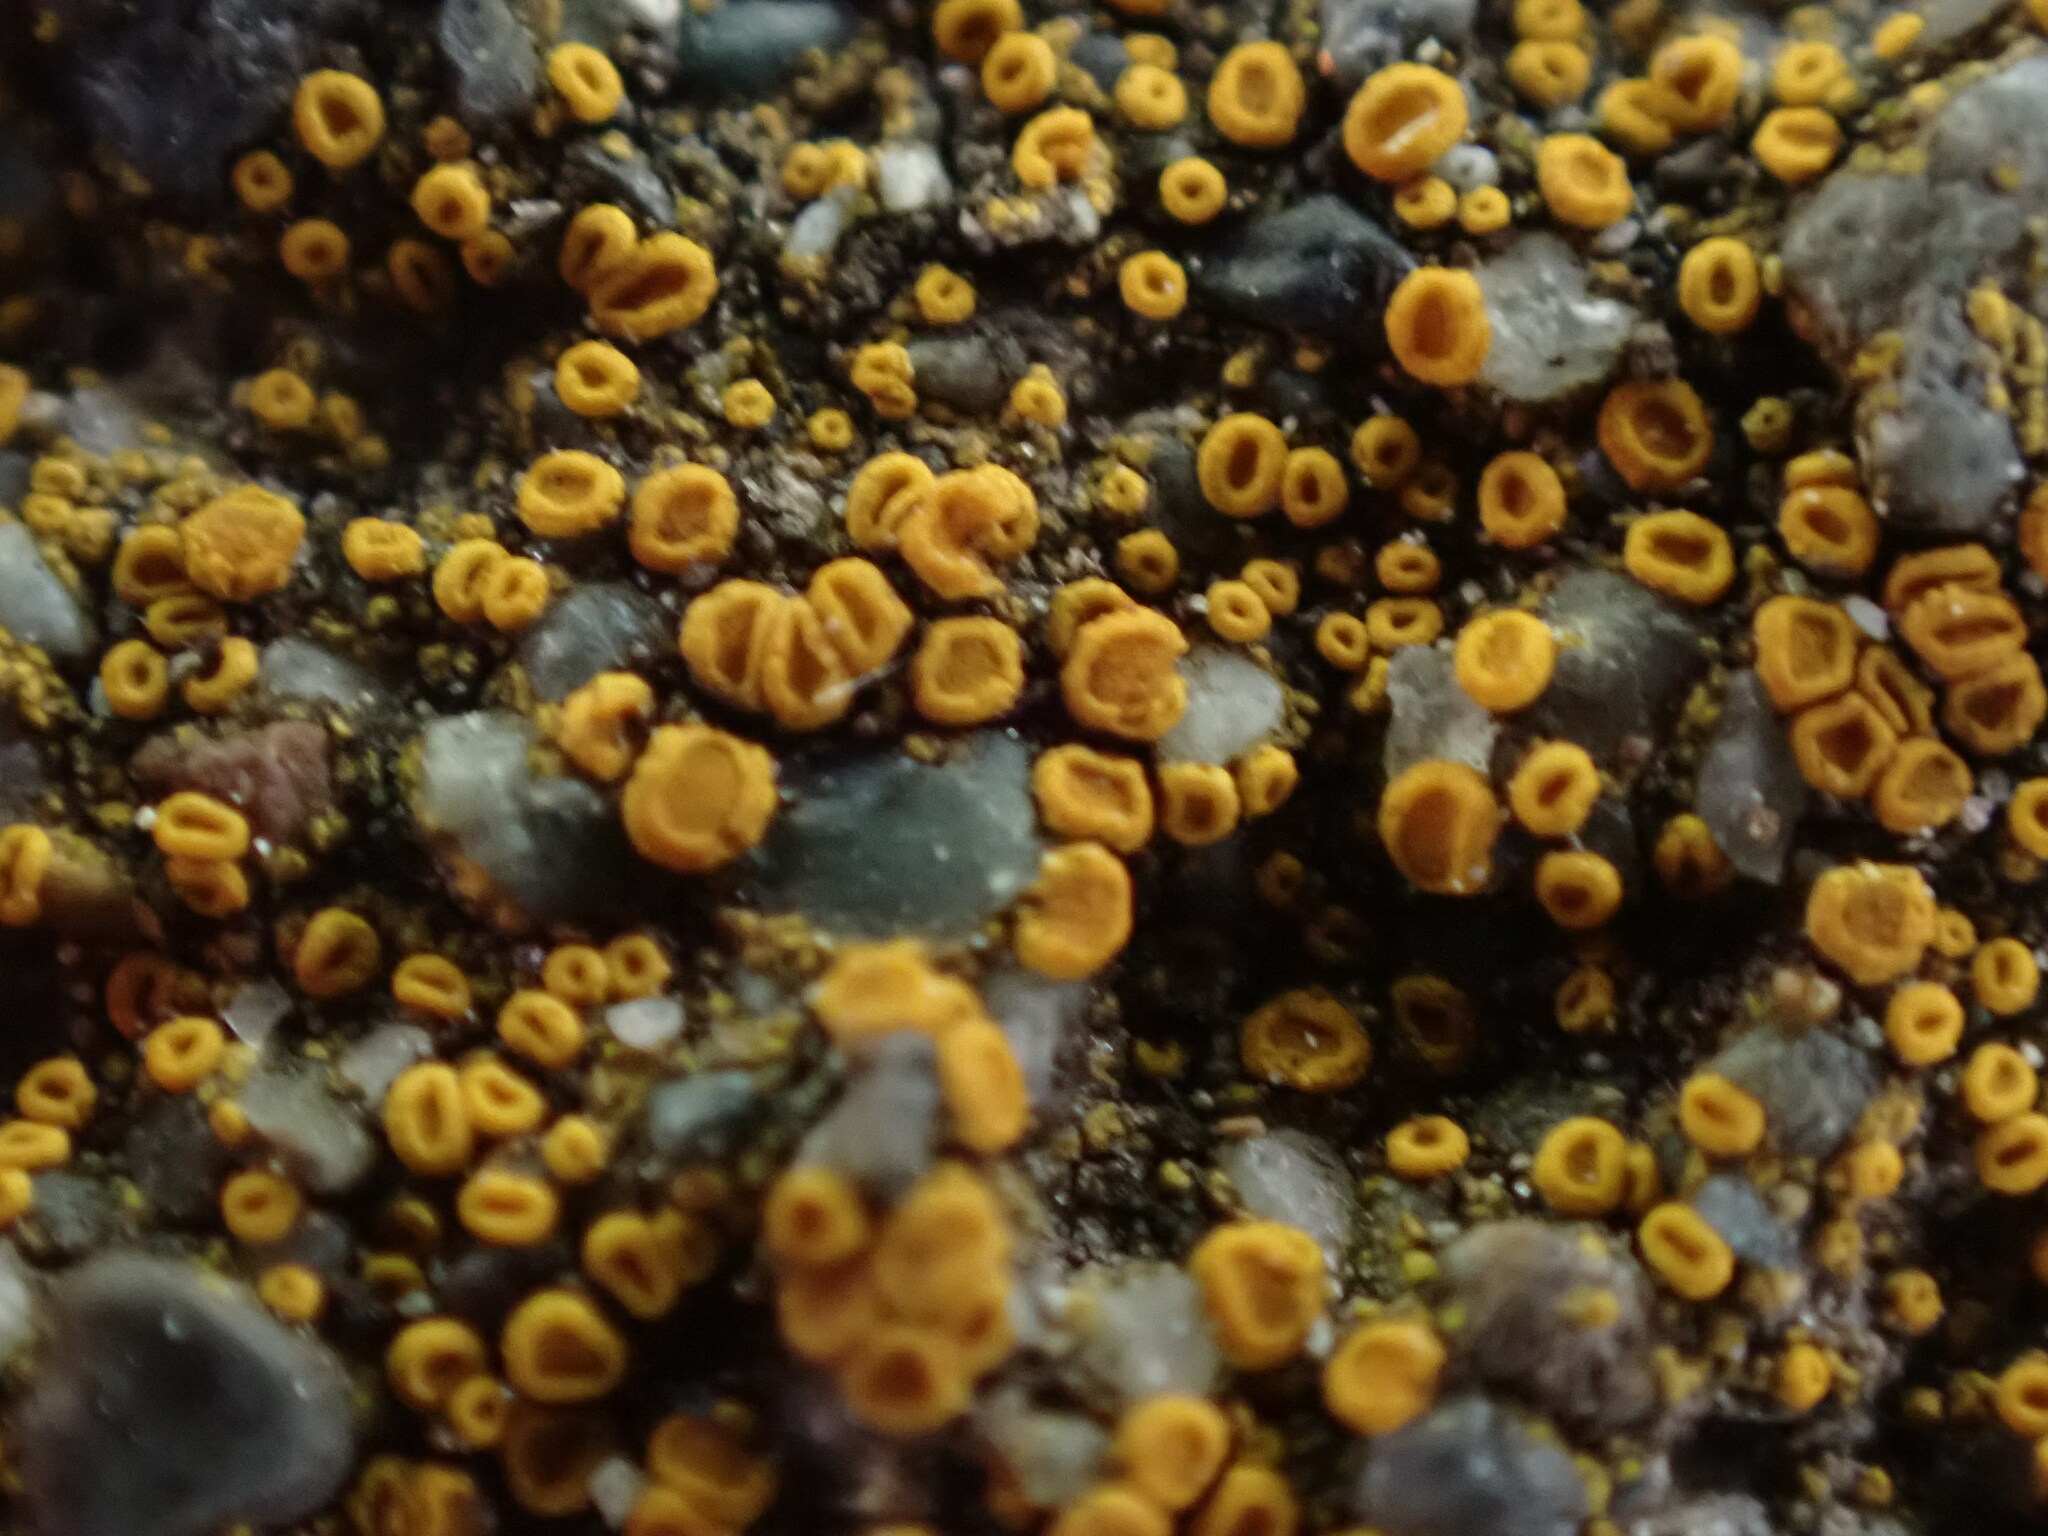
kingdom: Fungi
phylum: Ascomycota
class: Lecanoromycetes
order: Teloschistales
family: Teloschistaceae
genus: Tomnashia
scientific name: Tomnashia luteominia
